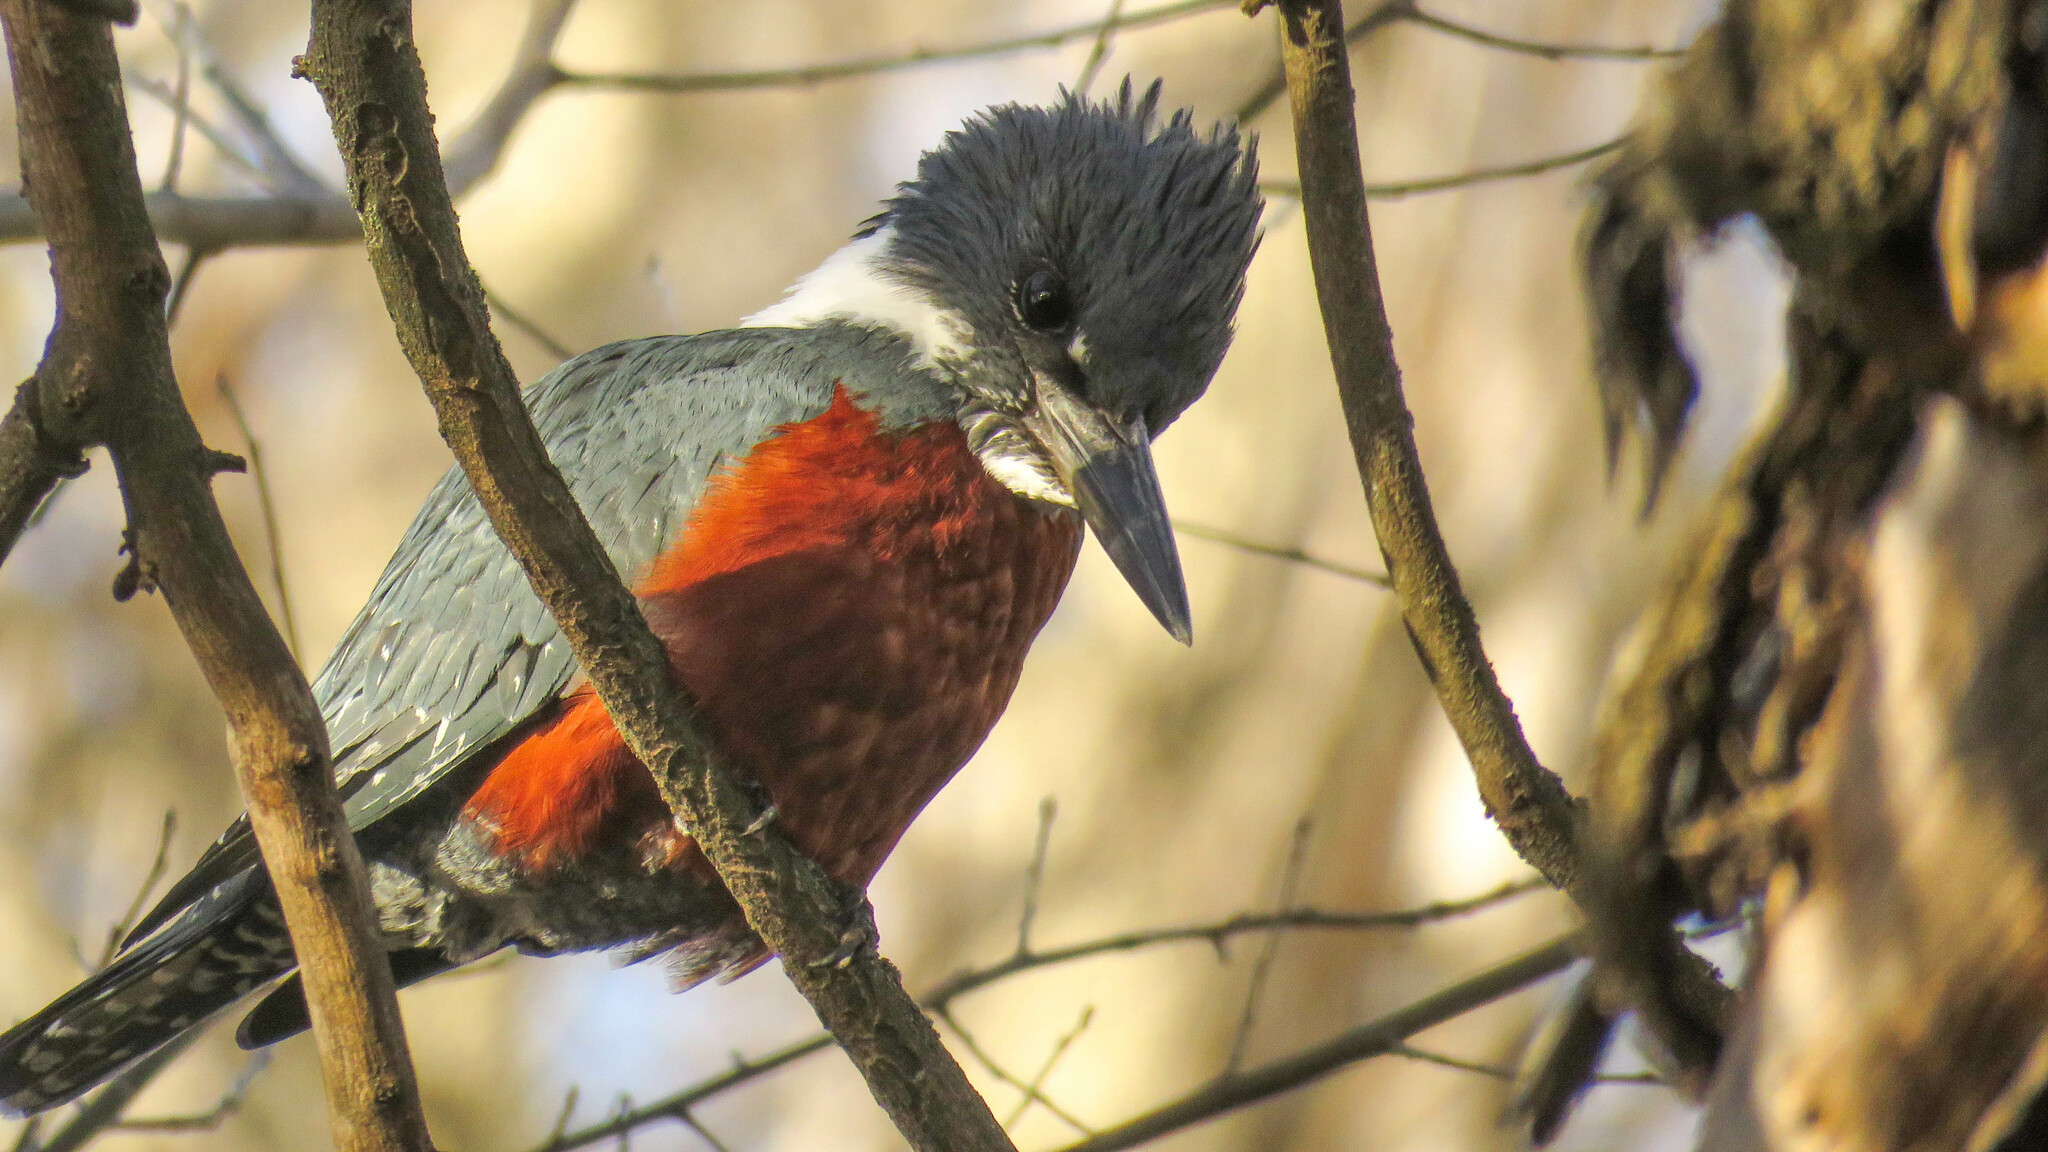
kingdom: Animalia
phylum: Chordata
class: Aves
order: Coraciiformes
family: Alcedinidae
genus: Megaceryle
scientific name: Megaceryle torquata
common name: Ringed kingfisher
